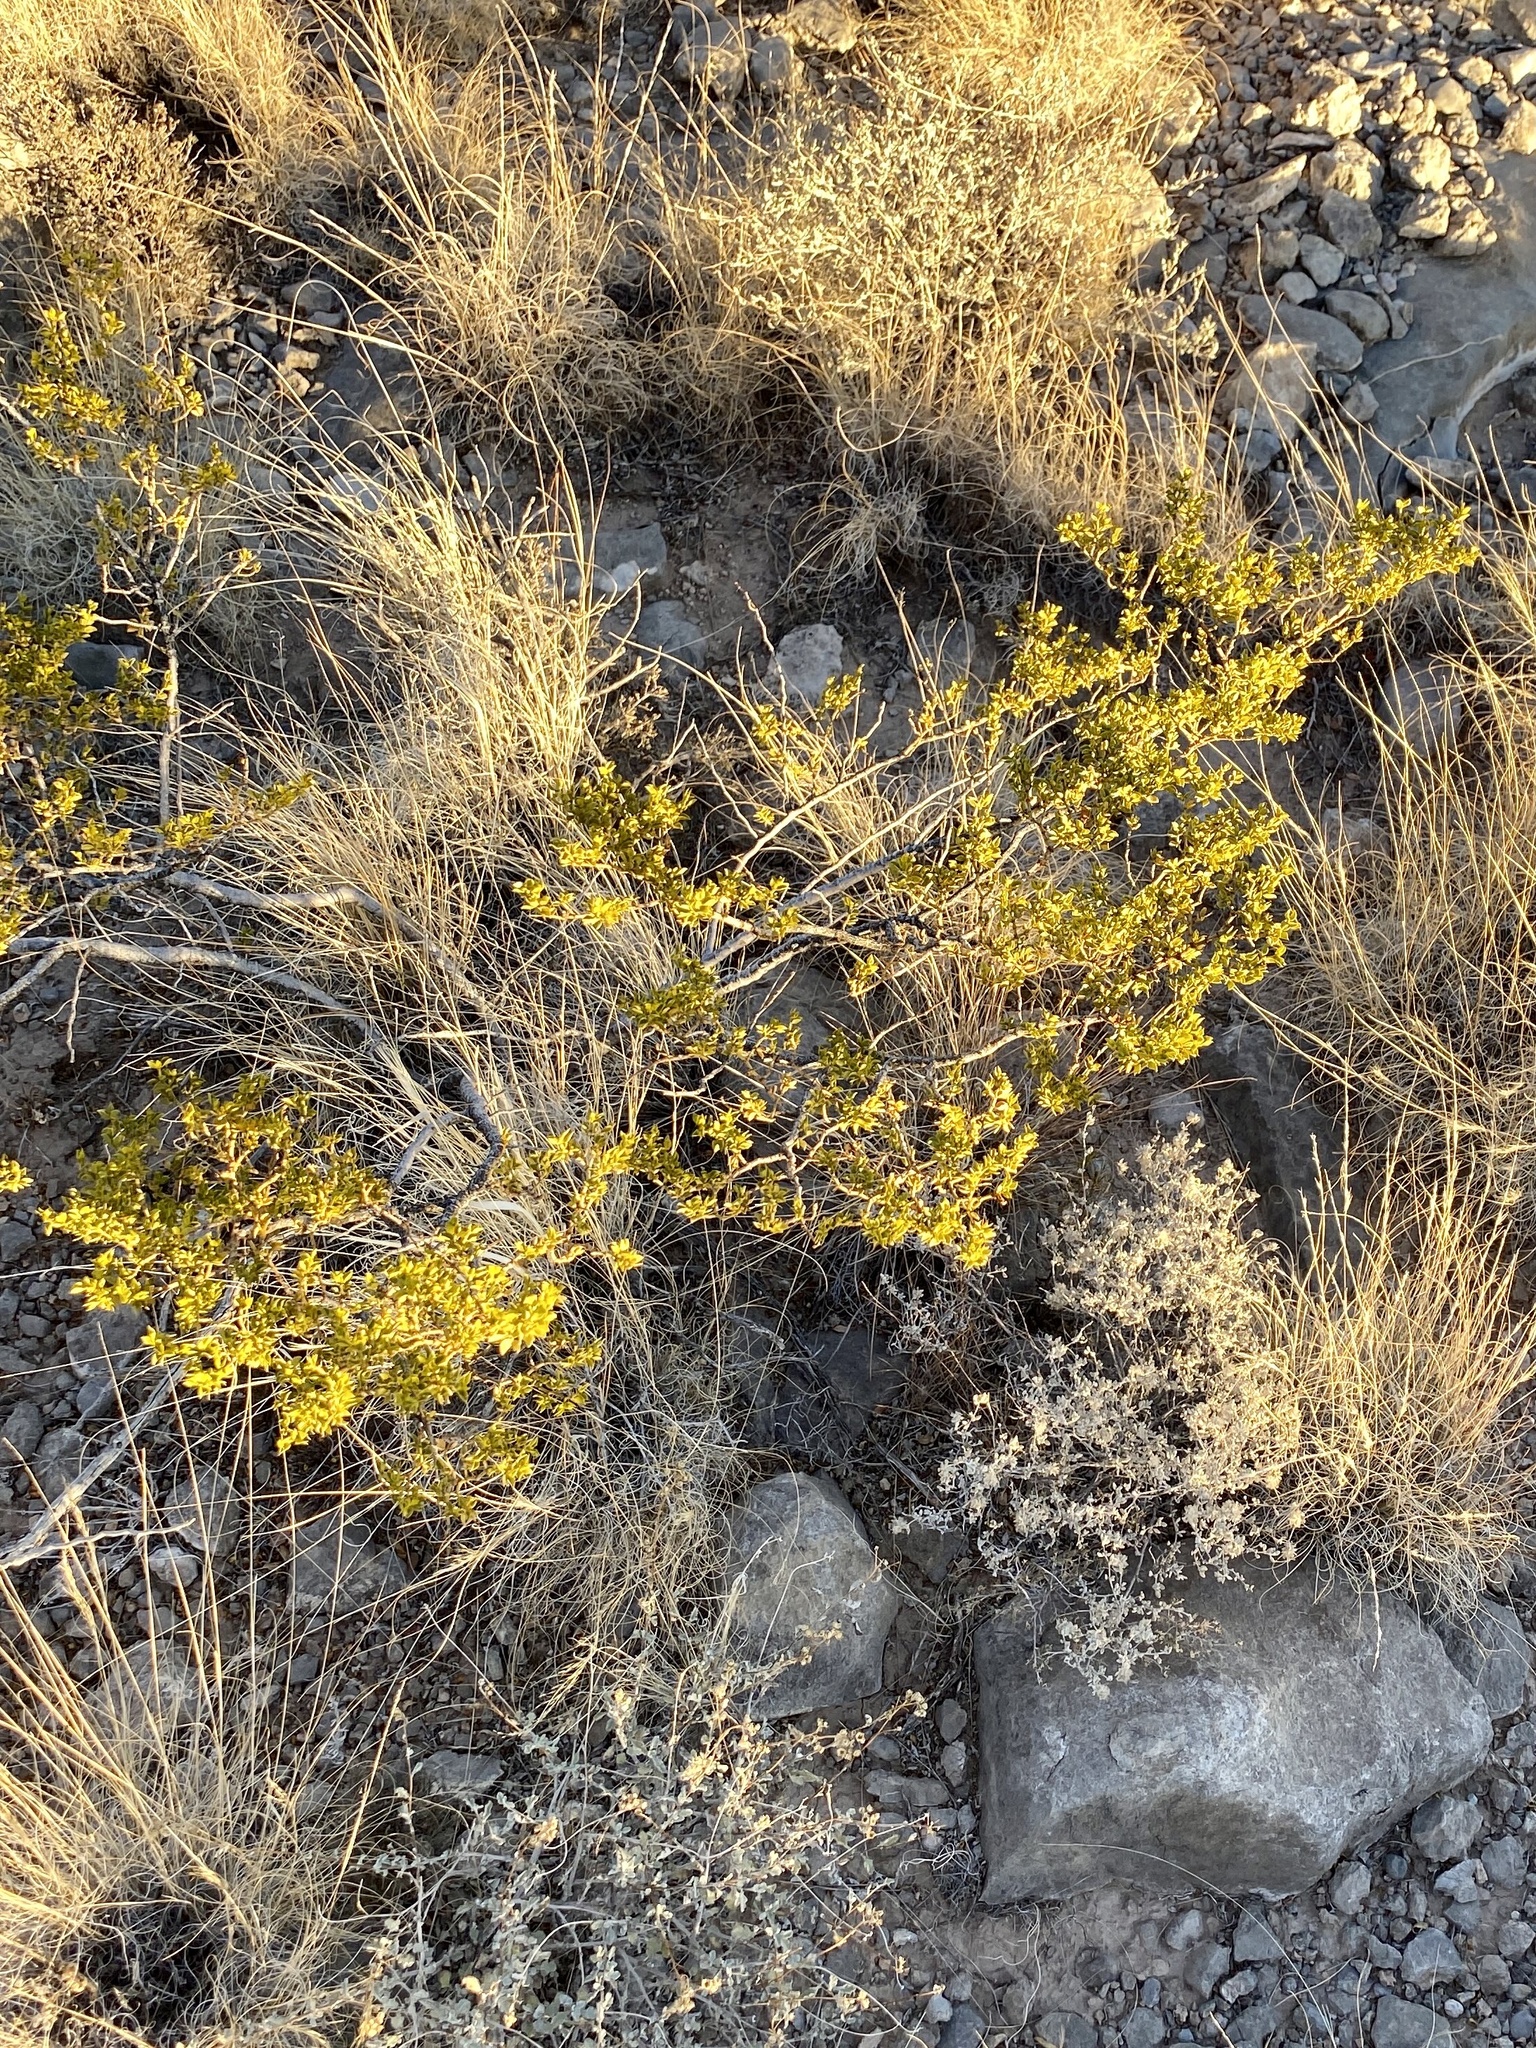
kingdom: Plantae
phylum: Tracheophyta
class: Magnoliopsida
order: Zygophyllales
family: Zygophyllaceae
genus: Larrea
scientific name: Larrea tridentata
